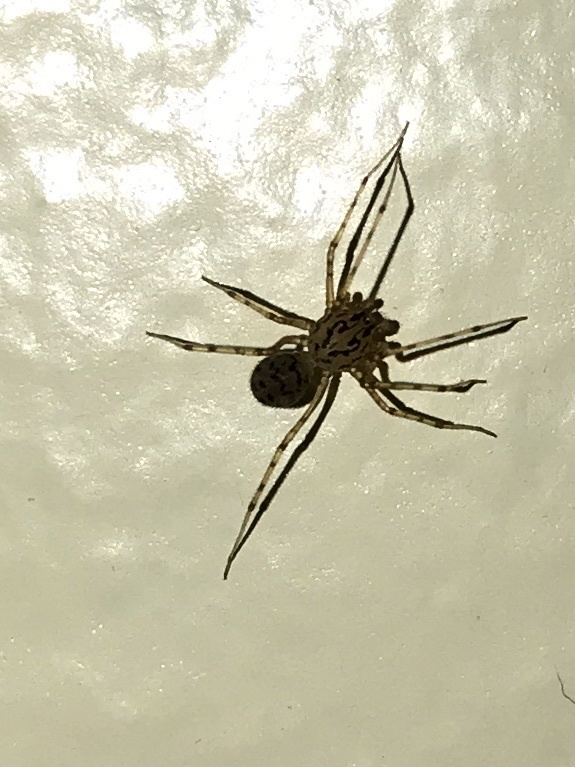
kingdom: Animalia
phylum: Arthropoda
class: Arachnida
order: Araneae
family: Scytodidae
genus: Scytodes
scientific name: Scytodes thoracica
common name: Spitting spider
